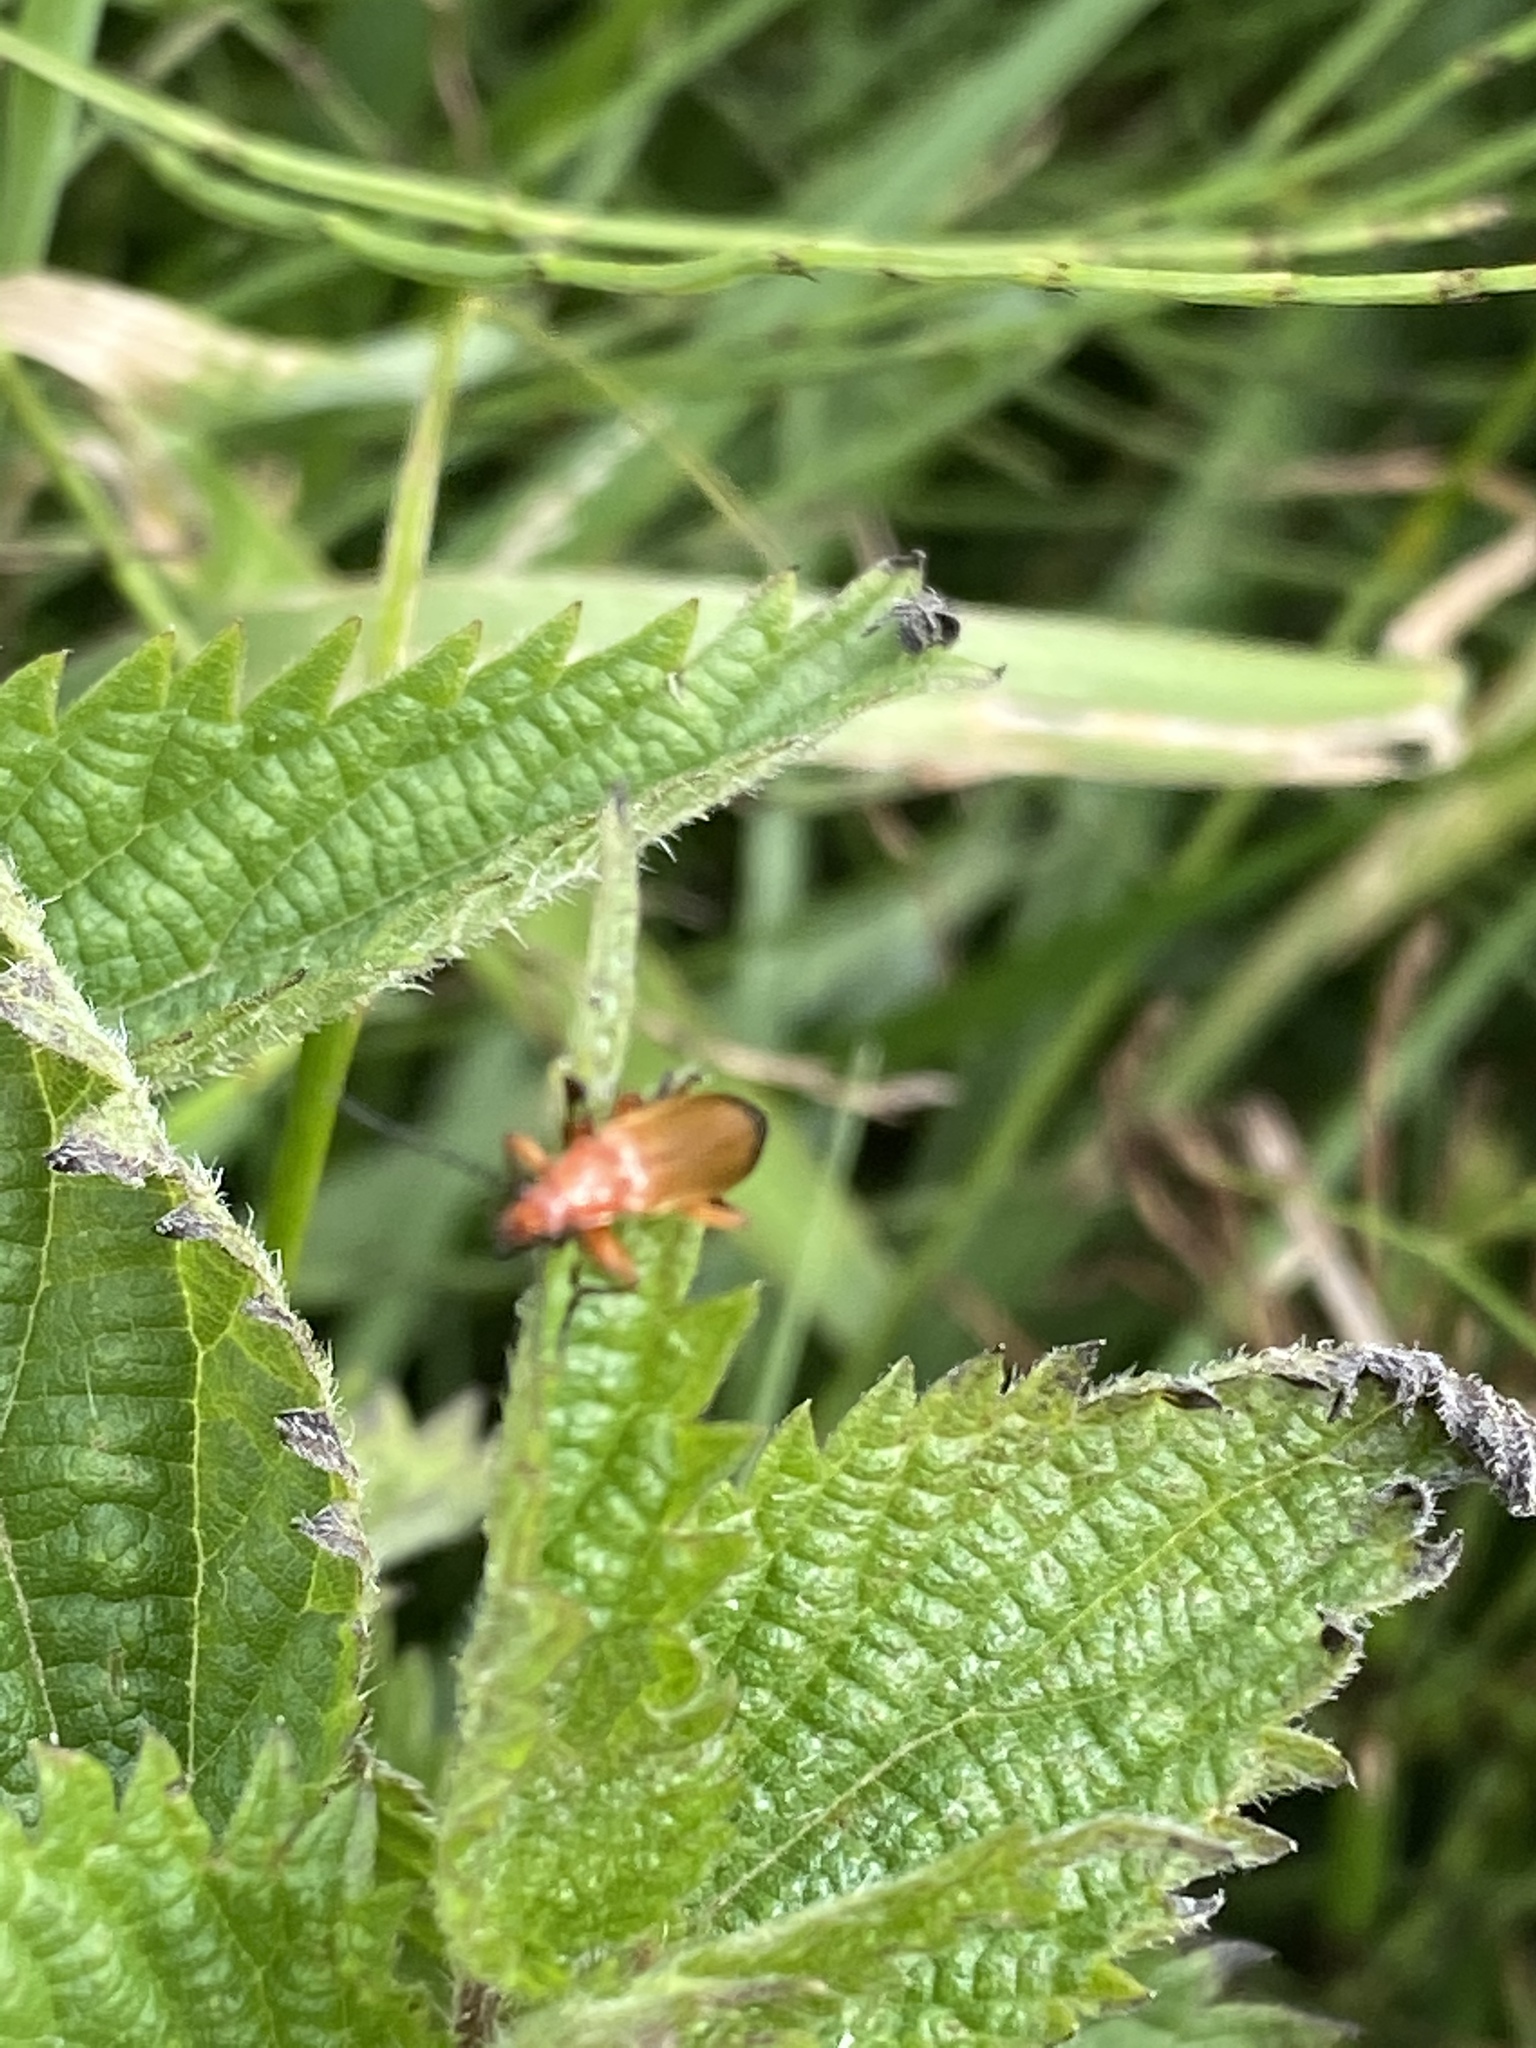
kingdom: Animalia
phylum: Arthropoda
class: Insecta
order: Coleoptera
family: Cantharidae
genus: Rhagonycha
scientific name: Rhagonycha fulva
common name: Common red soldier beetle
